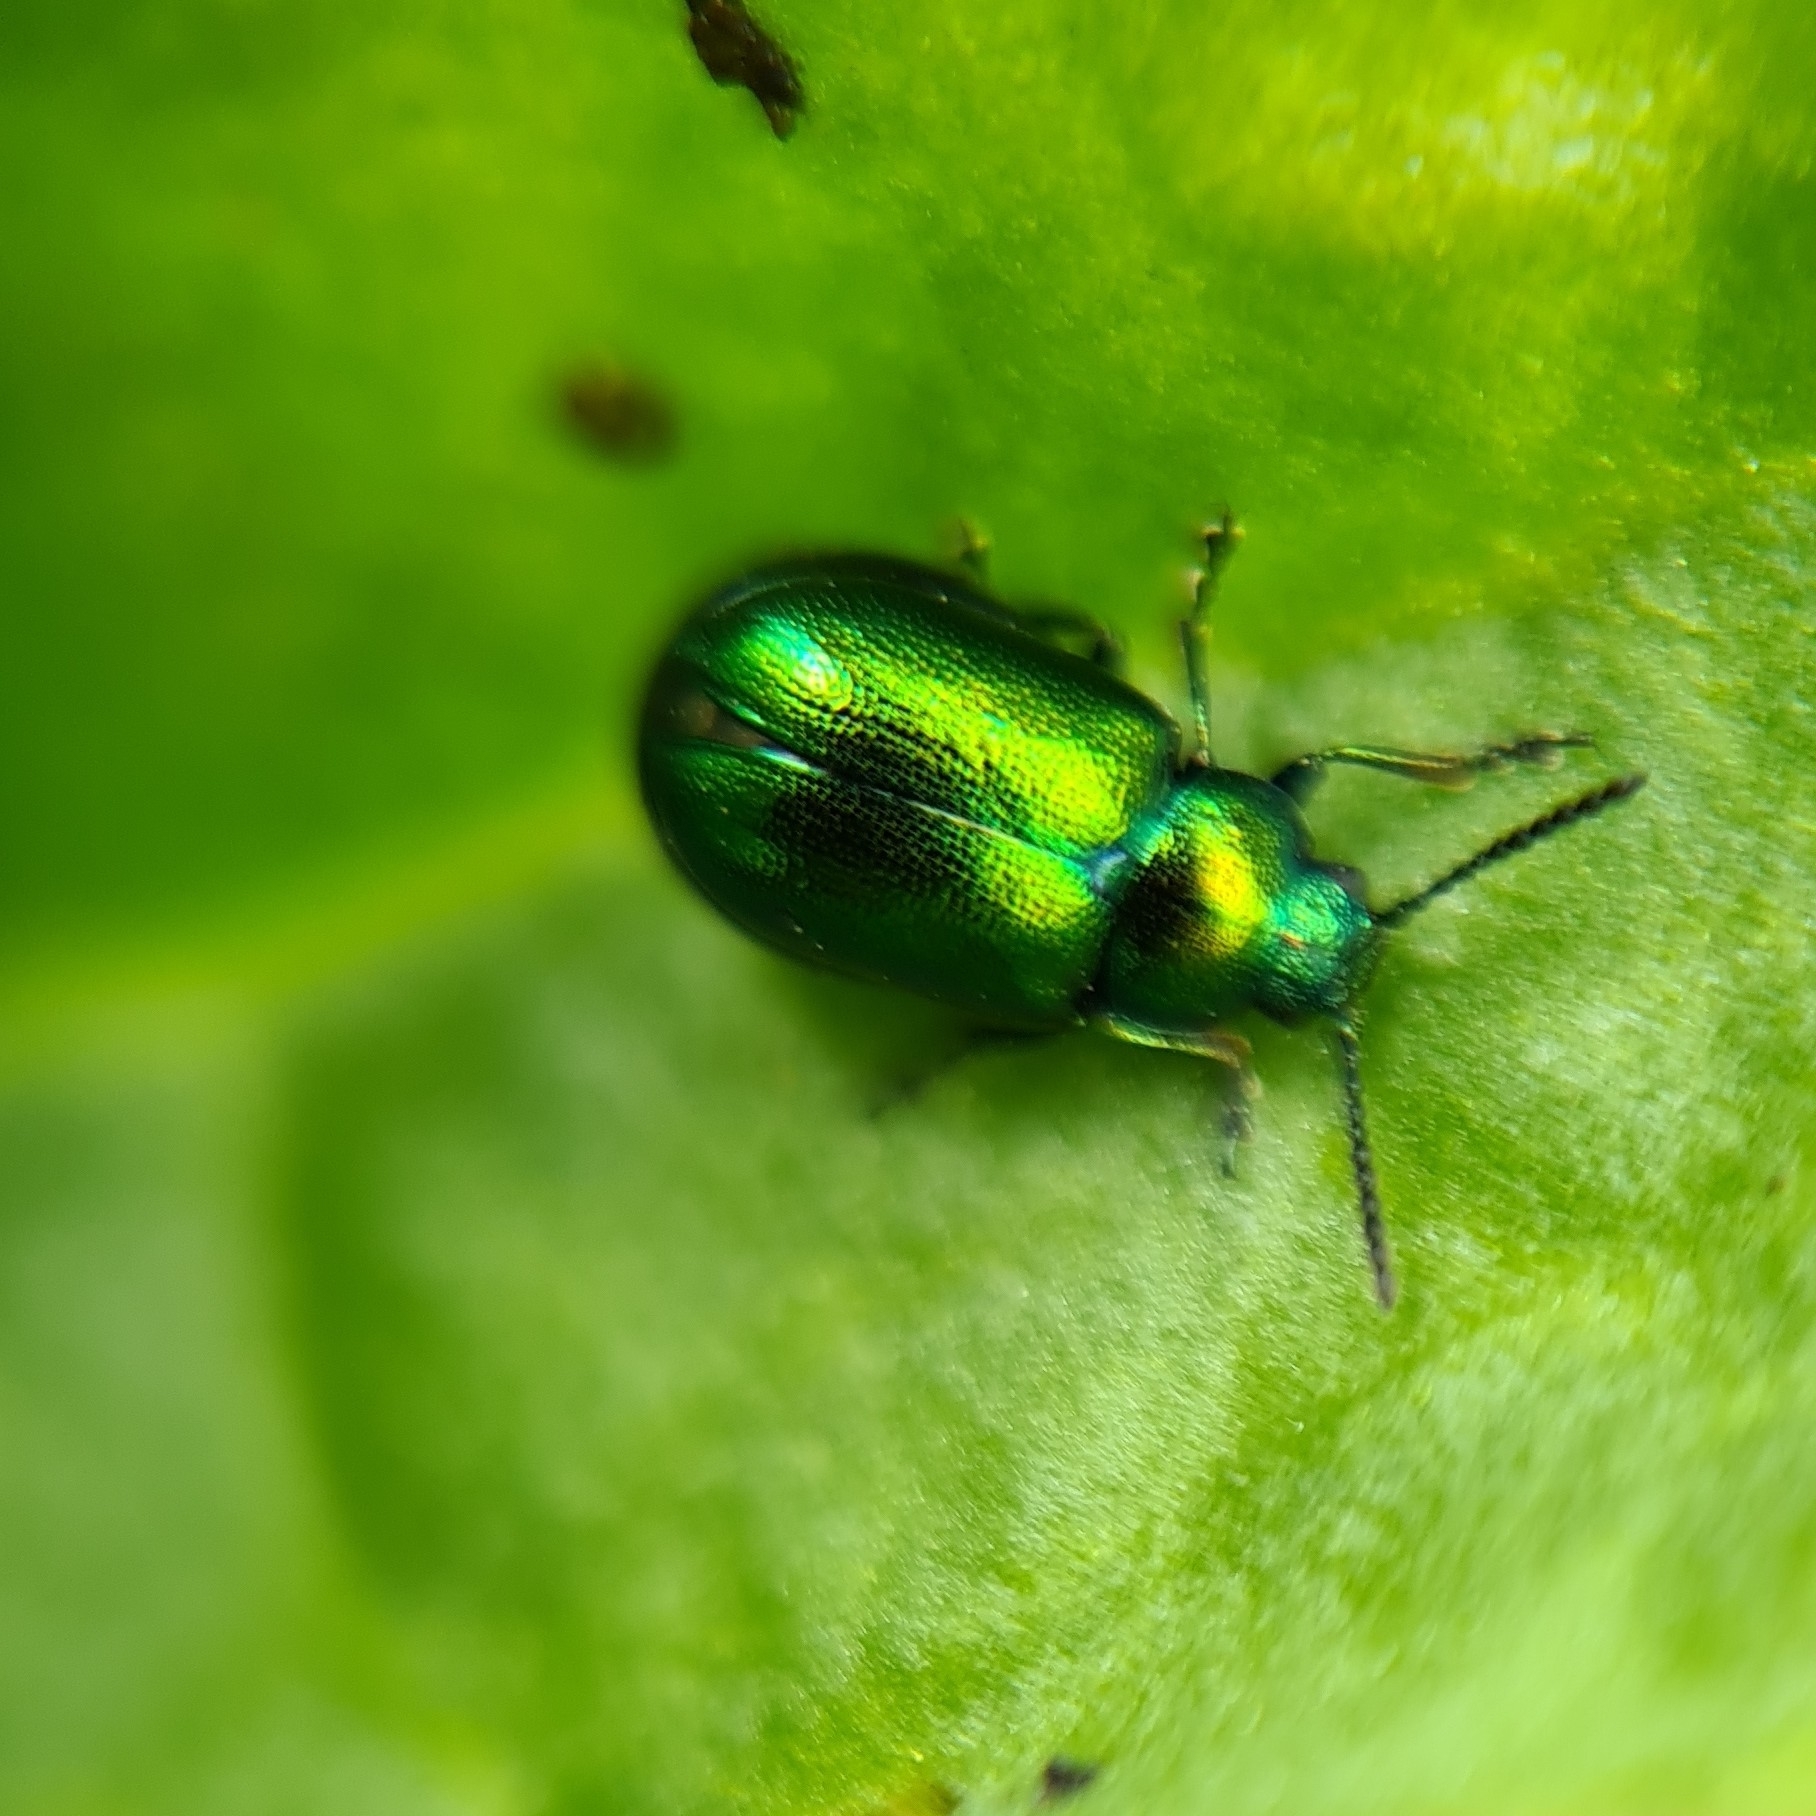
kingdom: Animalia
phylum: Arthropoda
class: Insecta
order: Coleoptera
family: Chrysomelidae
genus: Gastrophysa
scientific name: Gastrophysa viridula
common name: Green dock beetle
